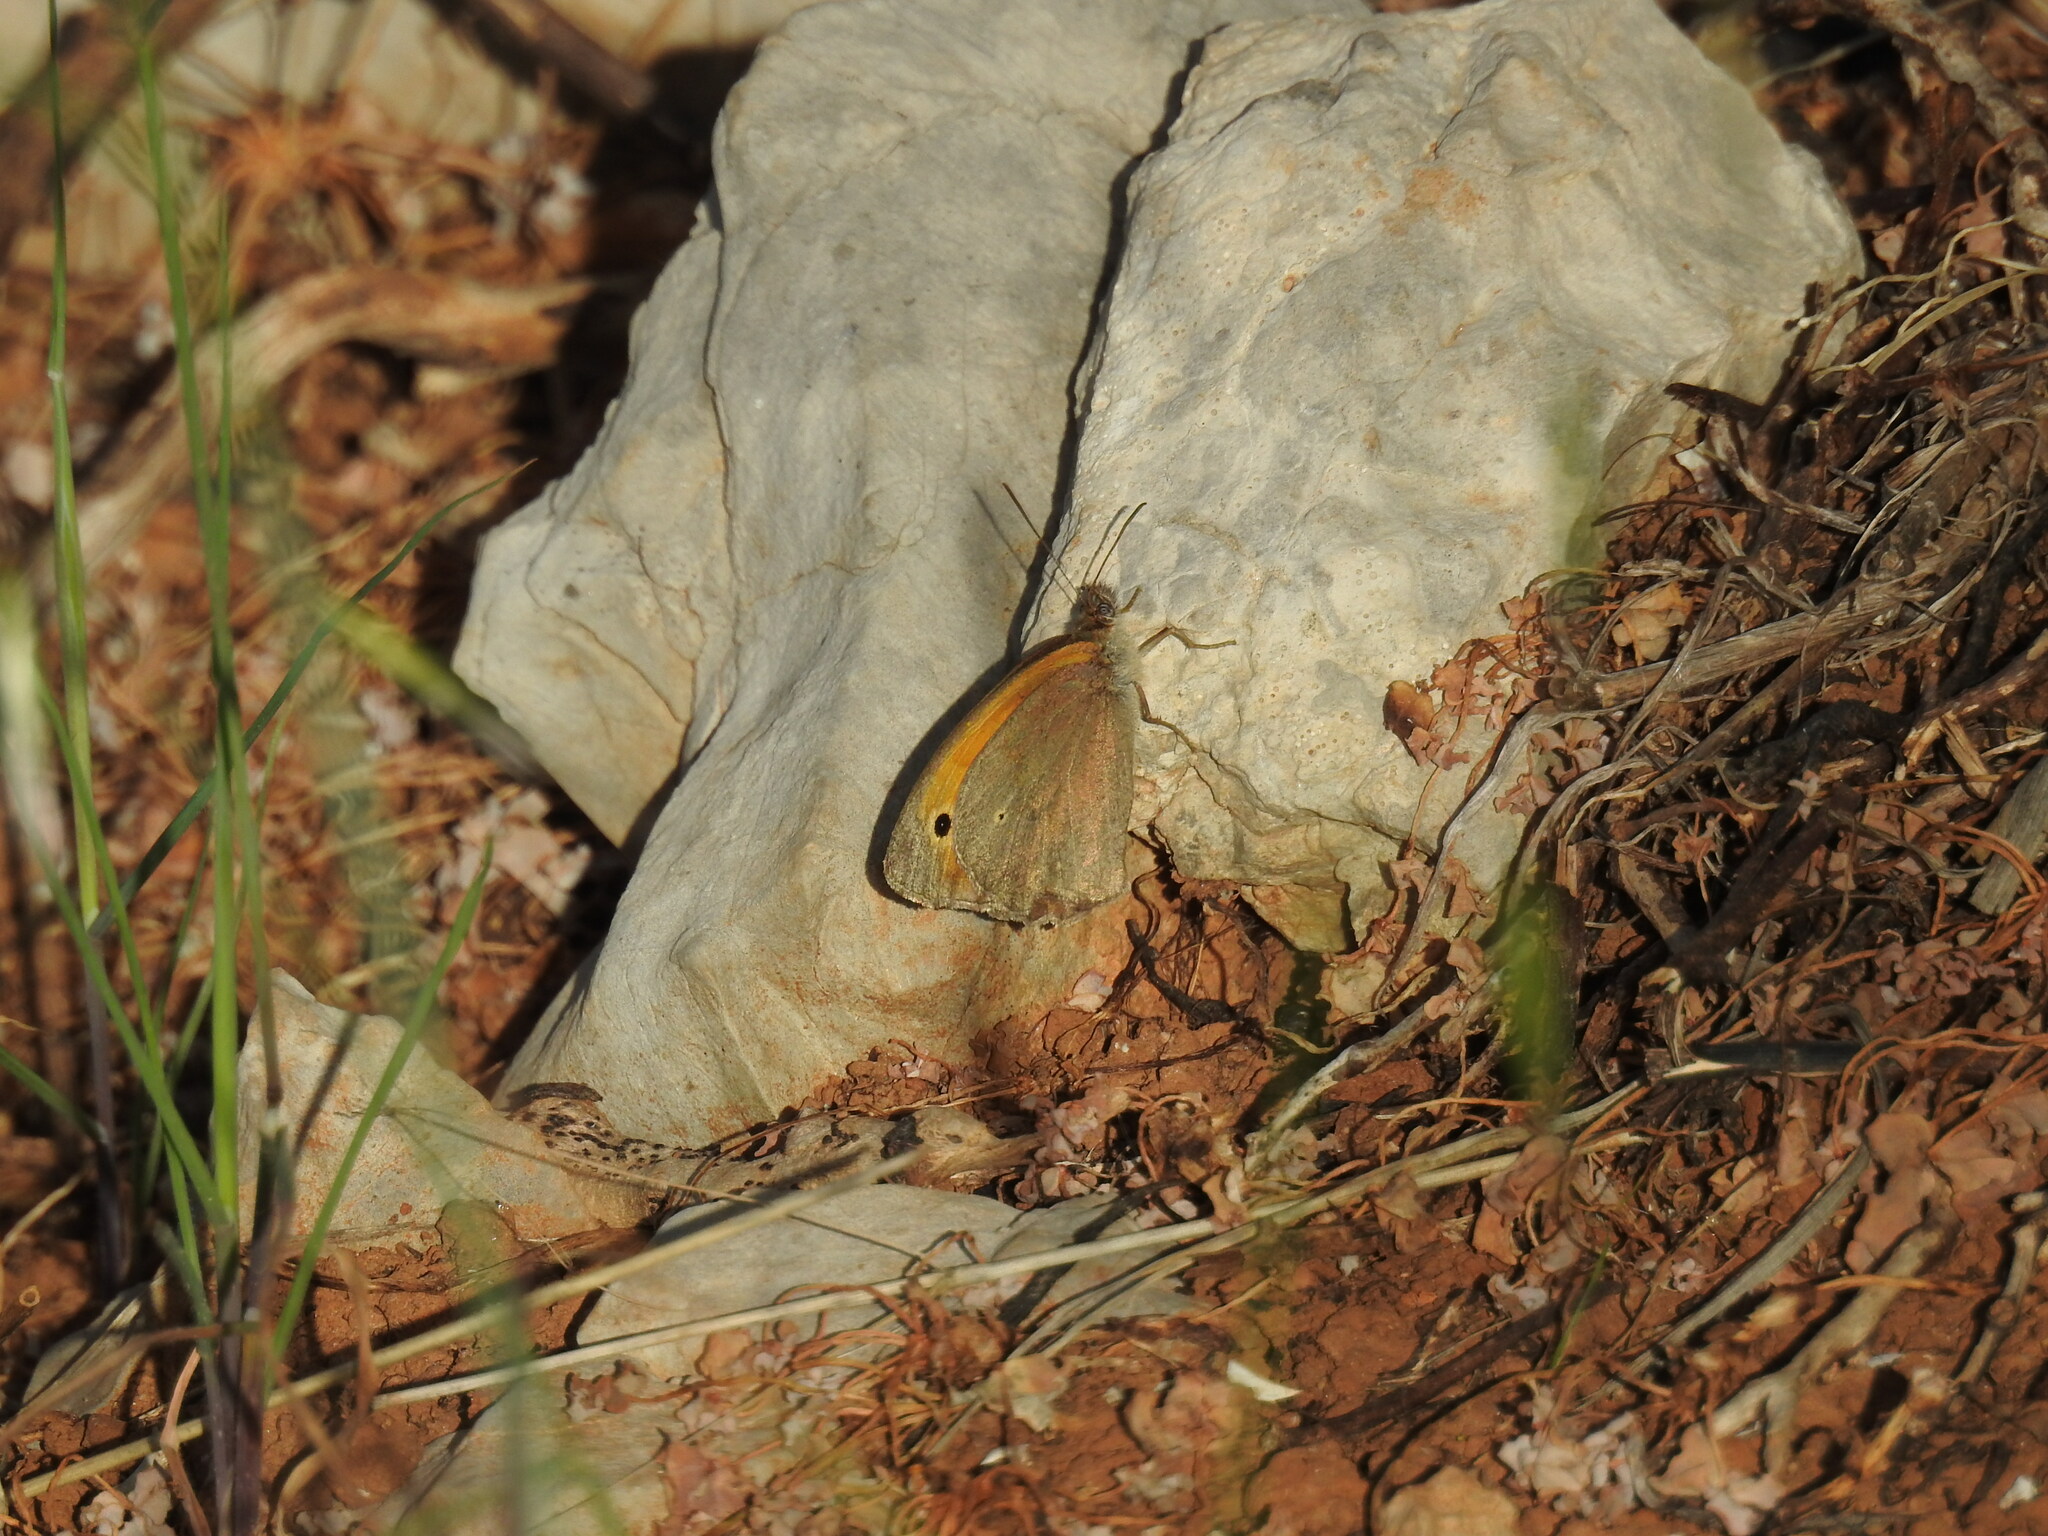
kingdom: Animalia
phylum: Arthropoda
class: Insecta
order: Lepidoptera
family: Nymphalidae
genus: Maniola
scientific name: Maniola jurtina
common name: Meadow brown
